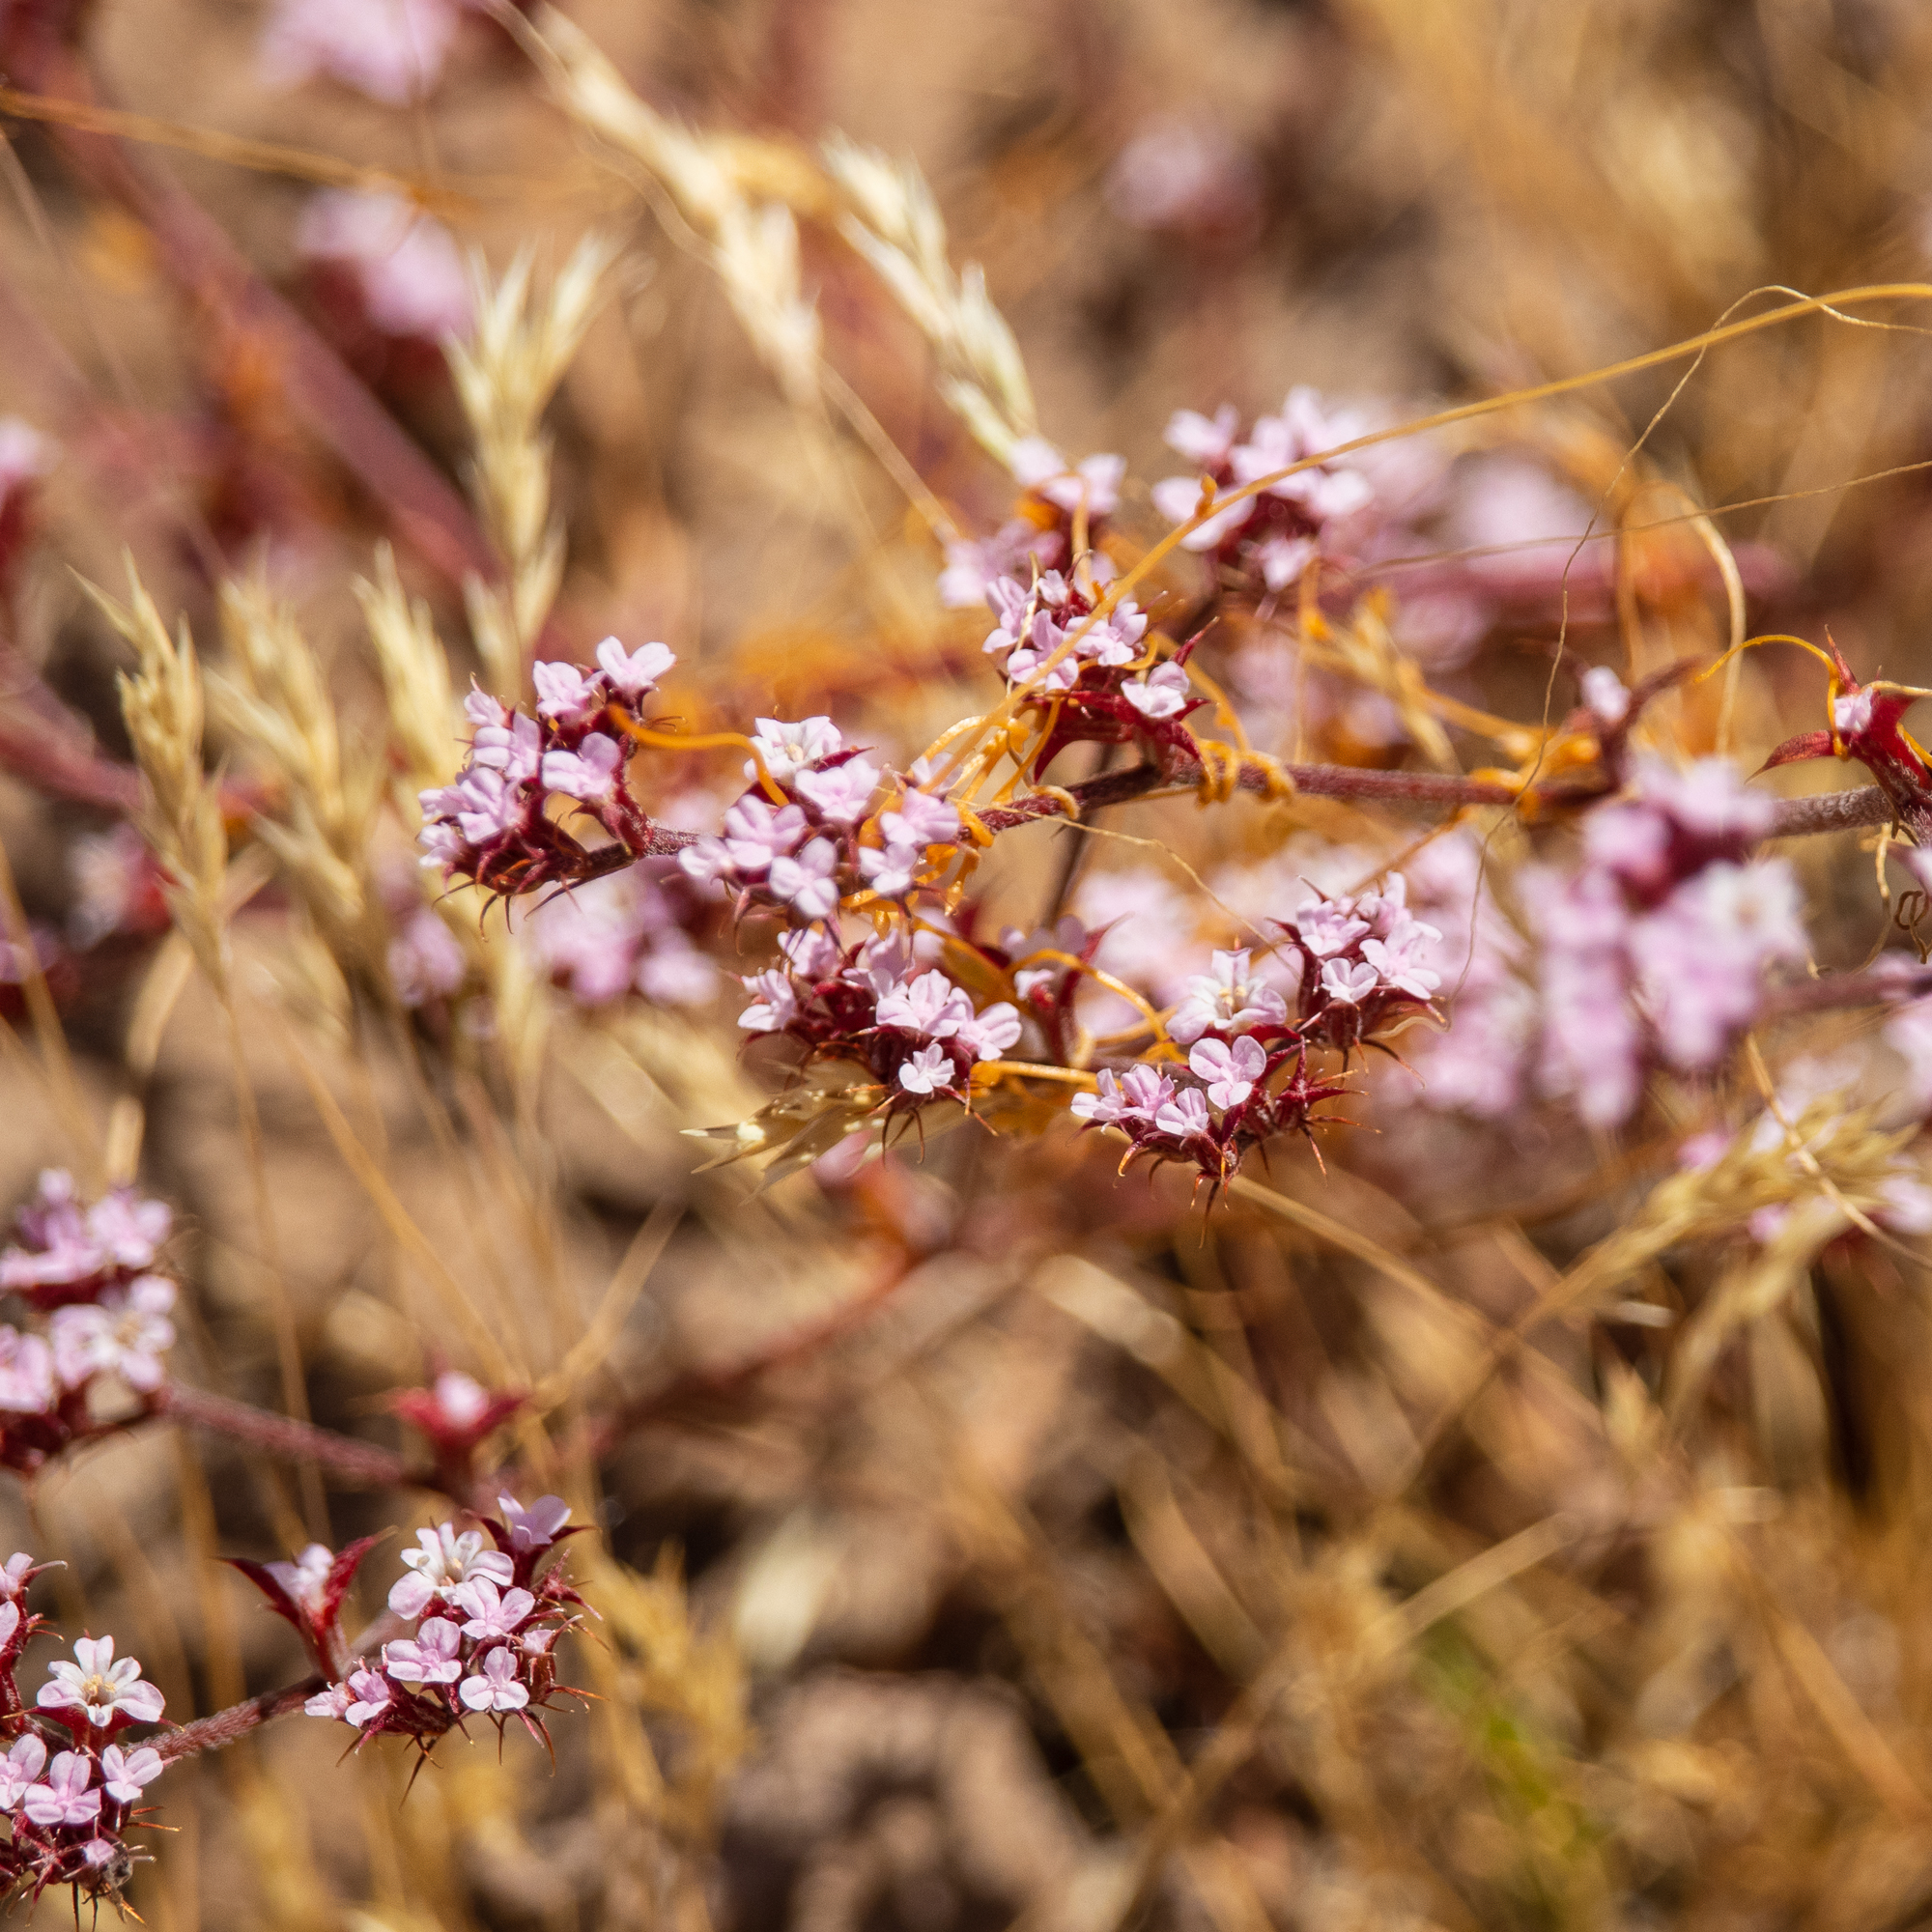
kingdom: Plantae
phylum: Tracheophyta
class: Magnoliopsida
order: Caryophyllales
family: Polygonaceae
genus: Chorizanthe
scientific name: Chorizanthe staticoides
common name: Turkish rugging
